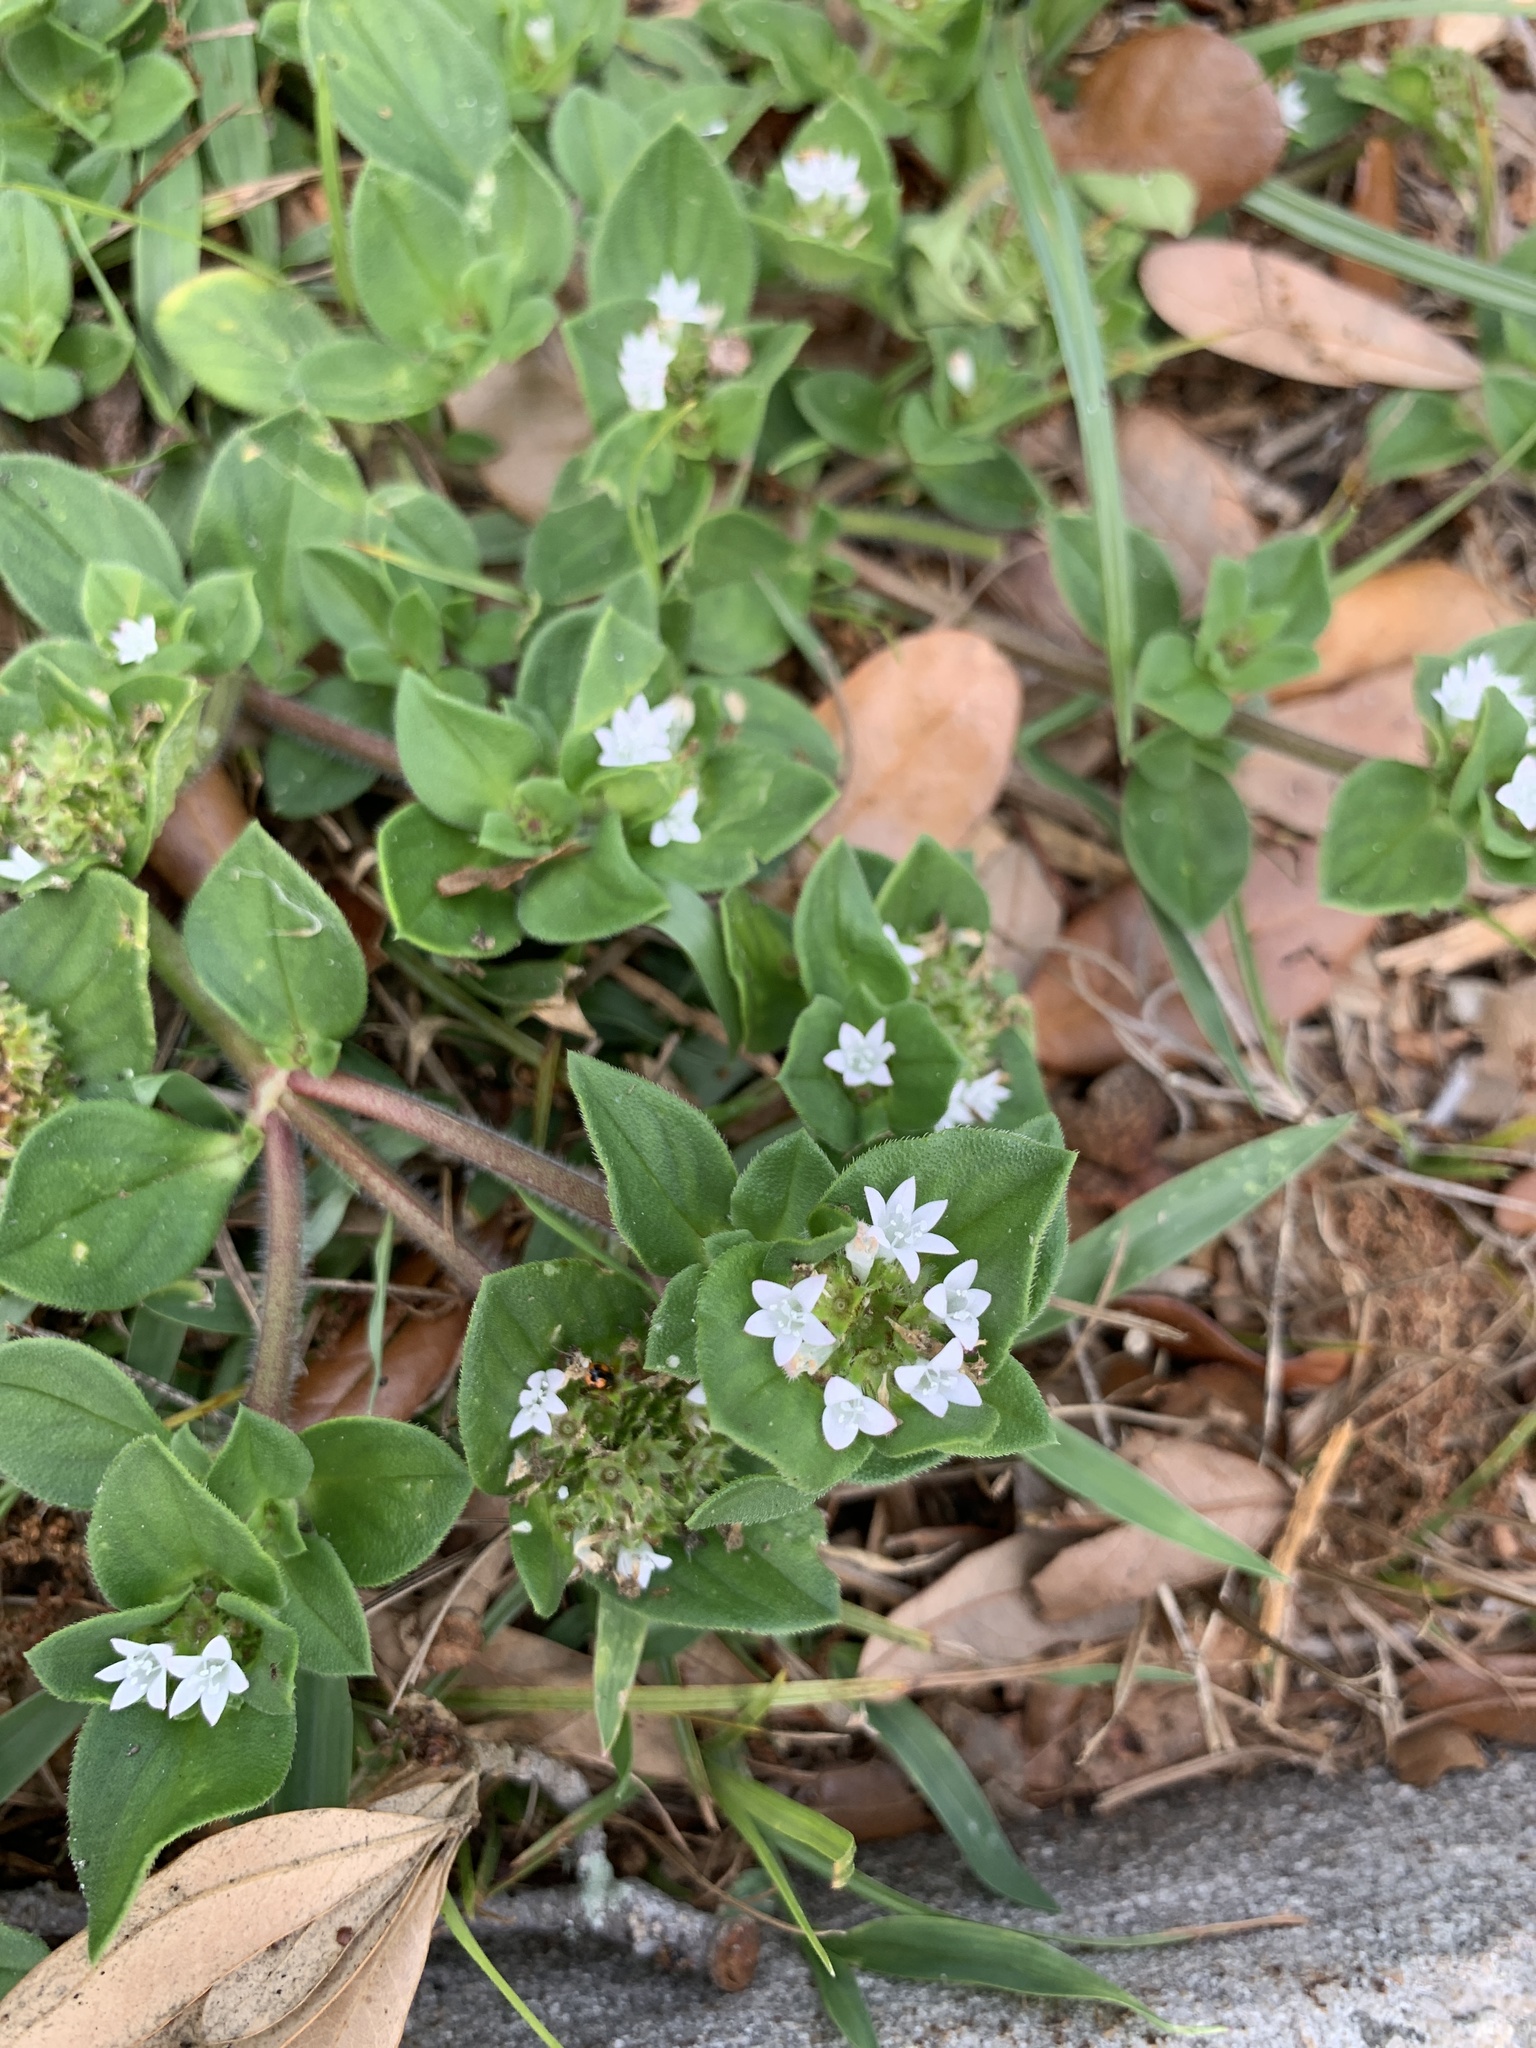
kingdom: Plantae
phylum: Tracheophyta
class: Magnoliopsida
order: Gentianales
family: Rubiaceae
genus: Richardia
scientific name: Richardia scabra
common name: Rough mexican clover
